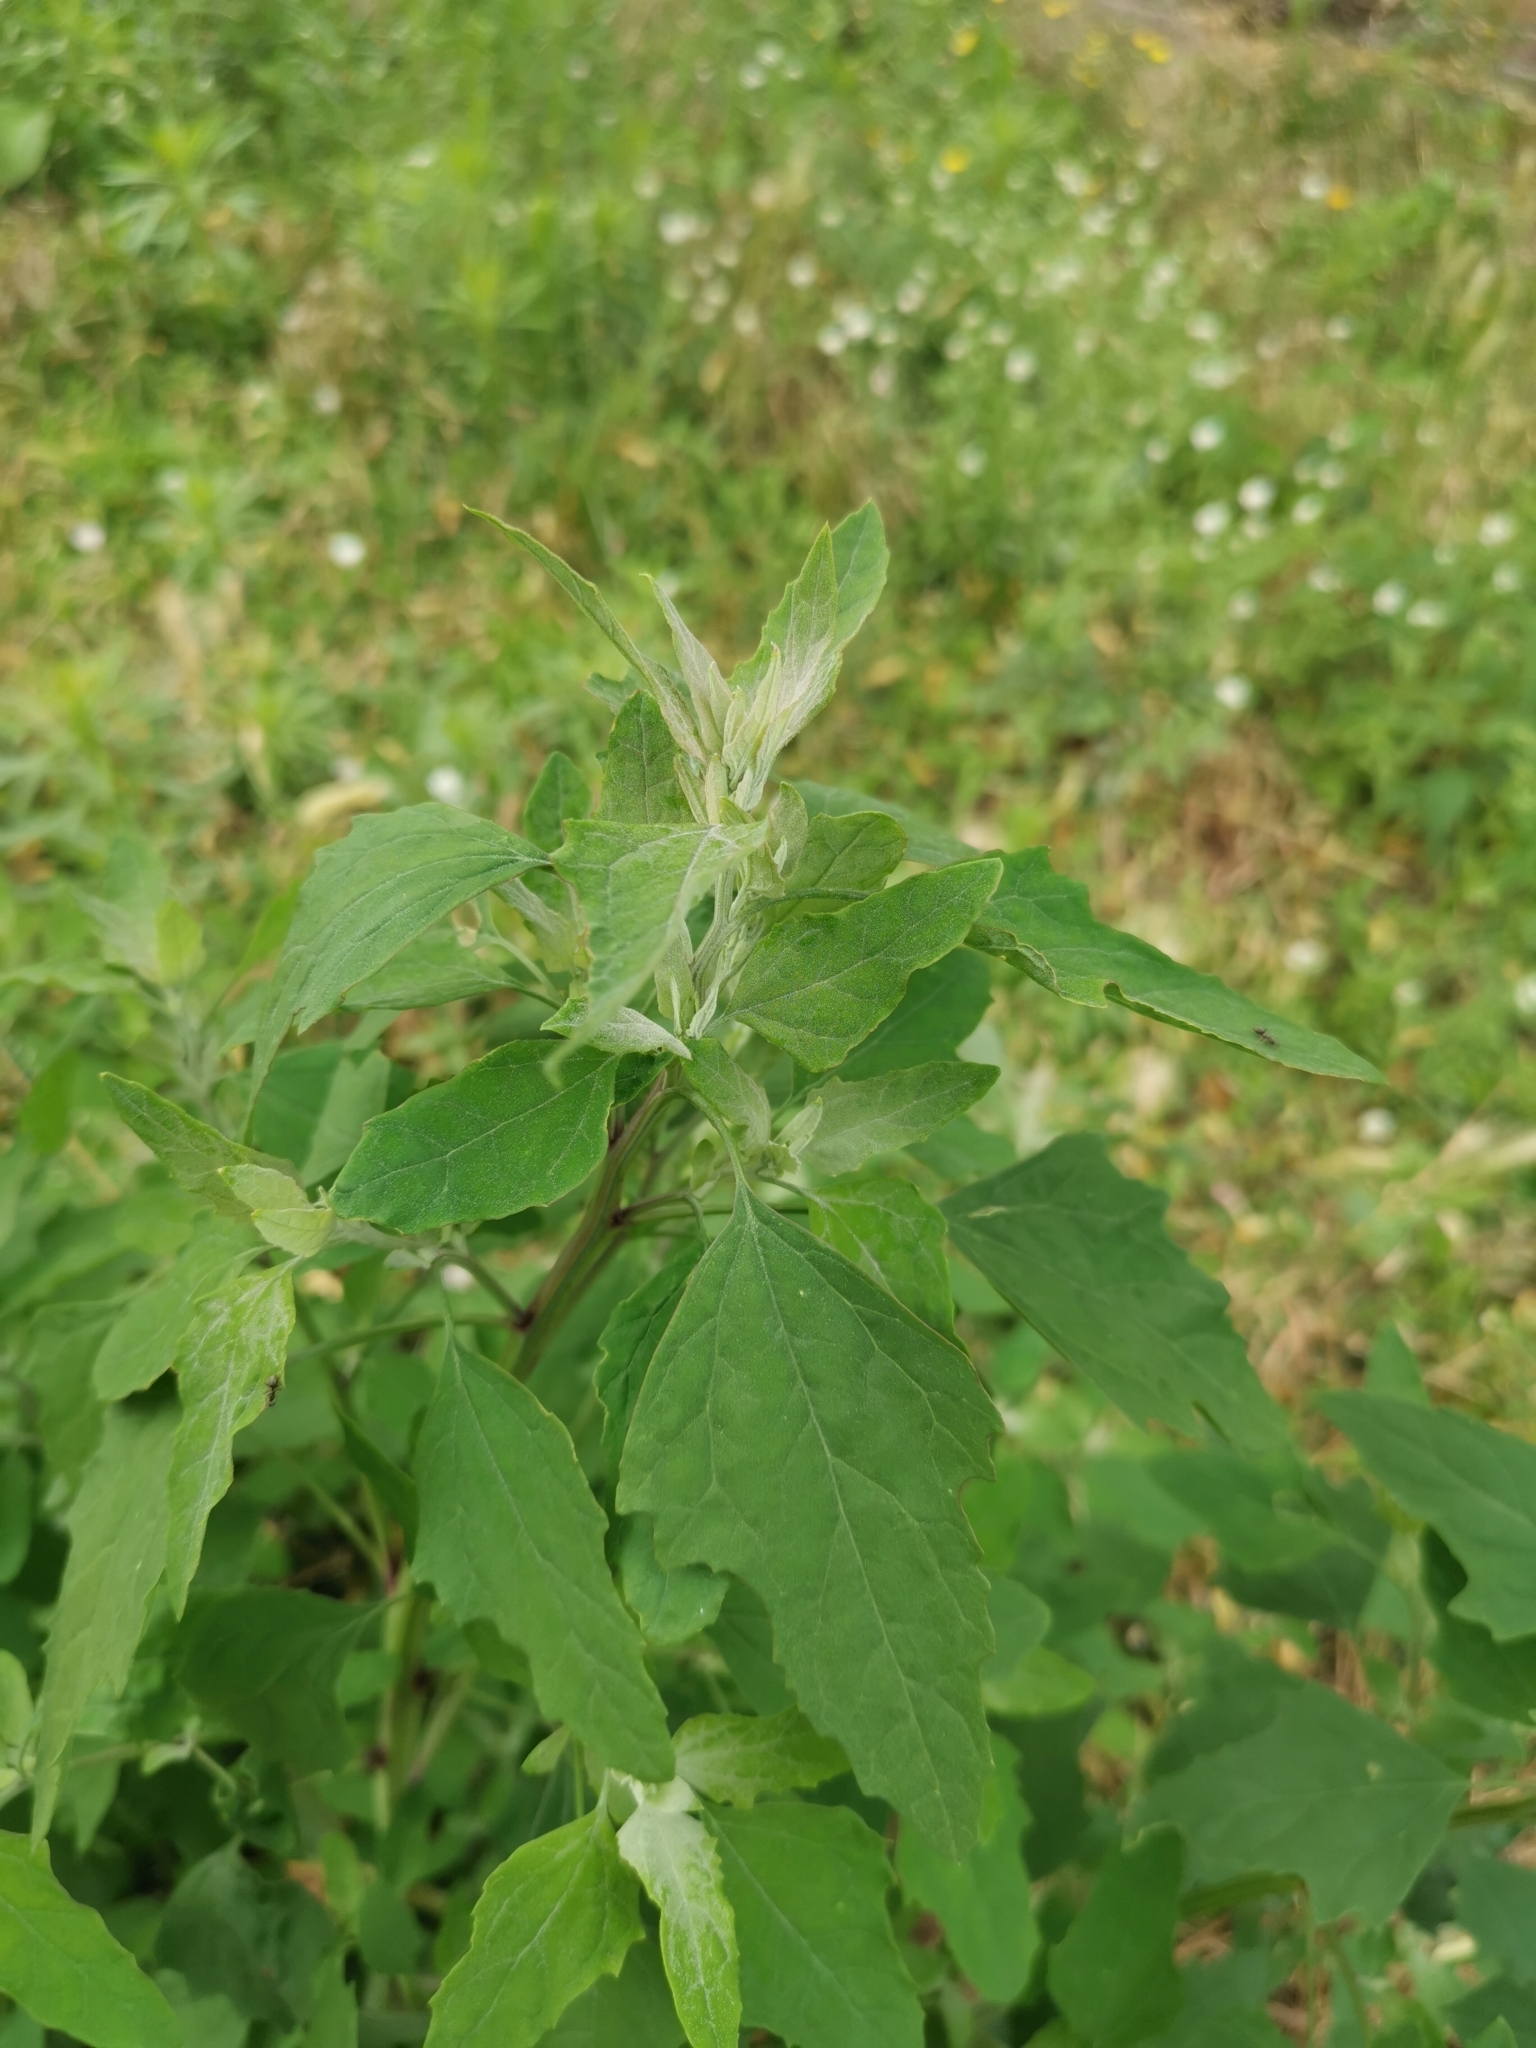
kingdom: Plantae
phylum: Tracheophyta
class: Magnoliopsida
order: Caryophyllales
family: Amaranthaceae
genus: Chenopodium
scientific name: Chenopodium album
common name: Fat-hen
